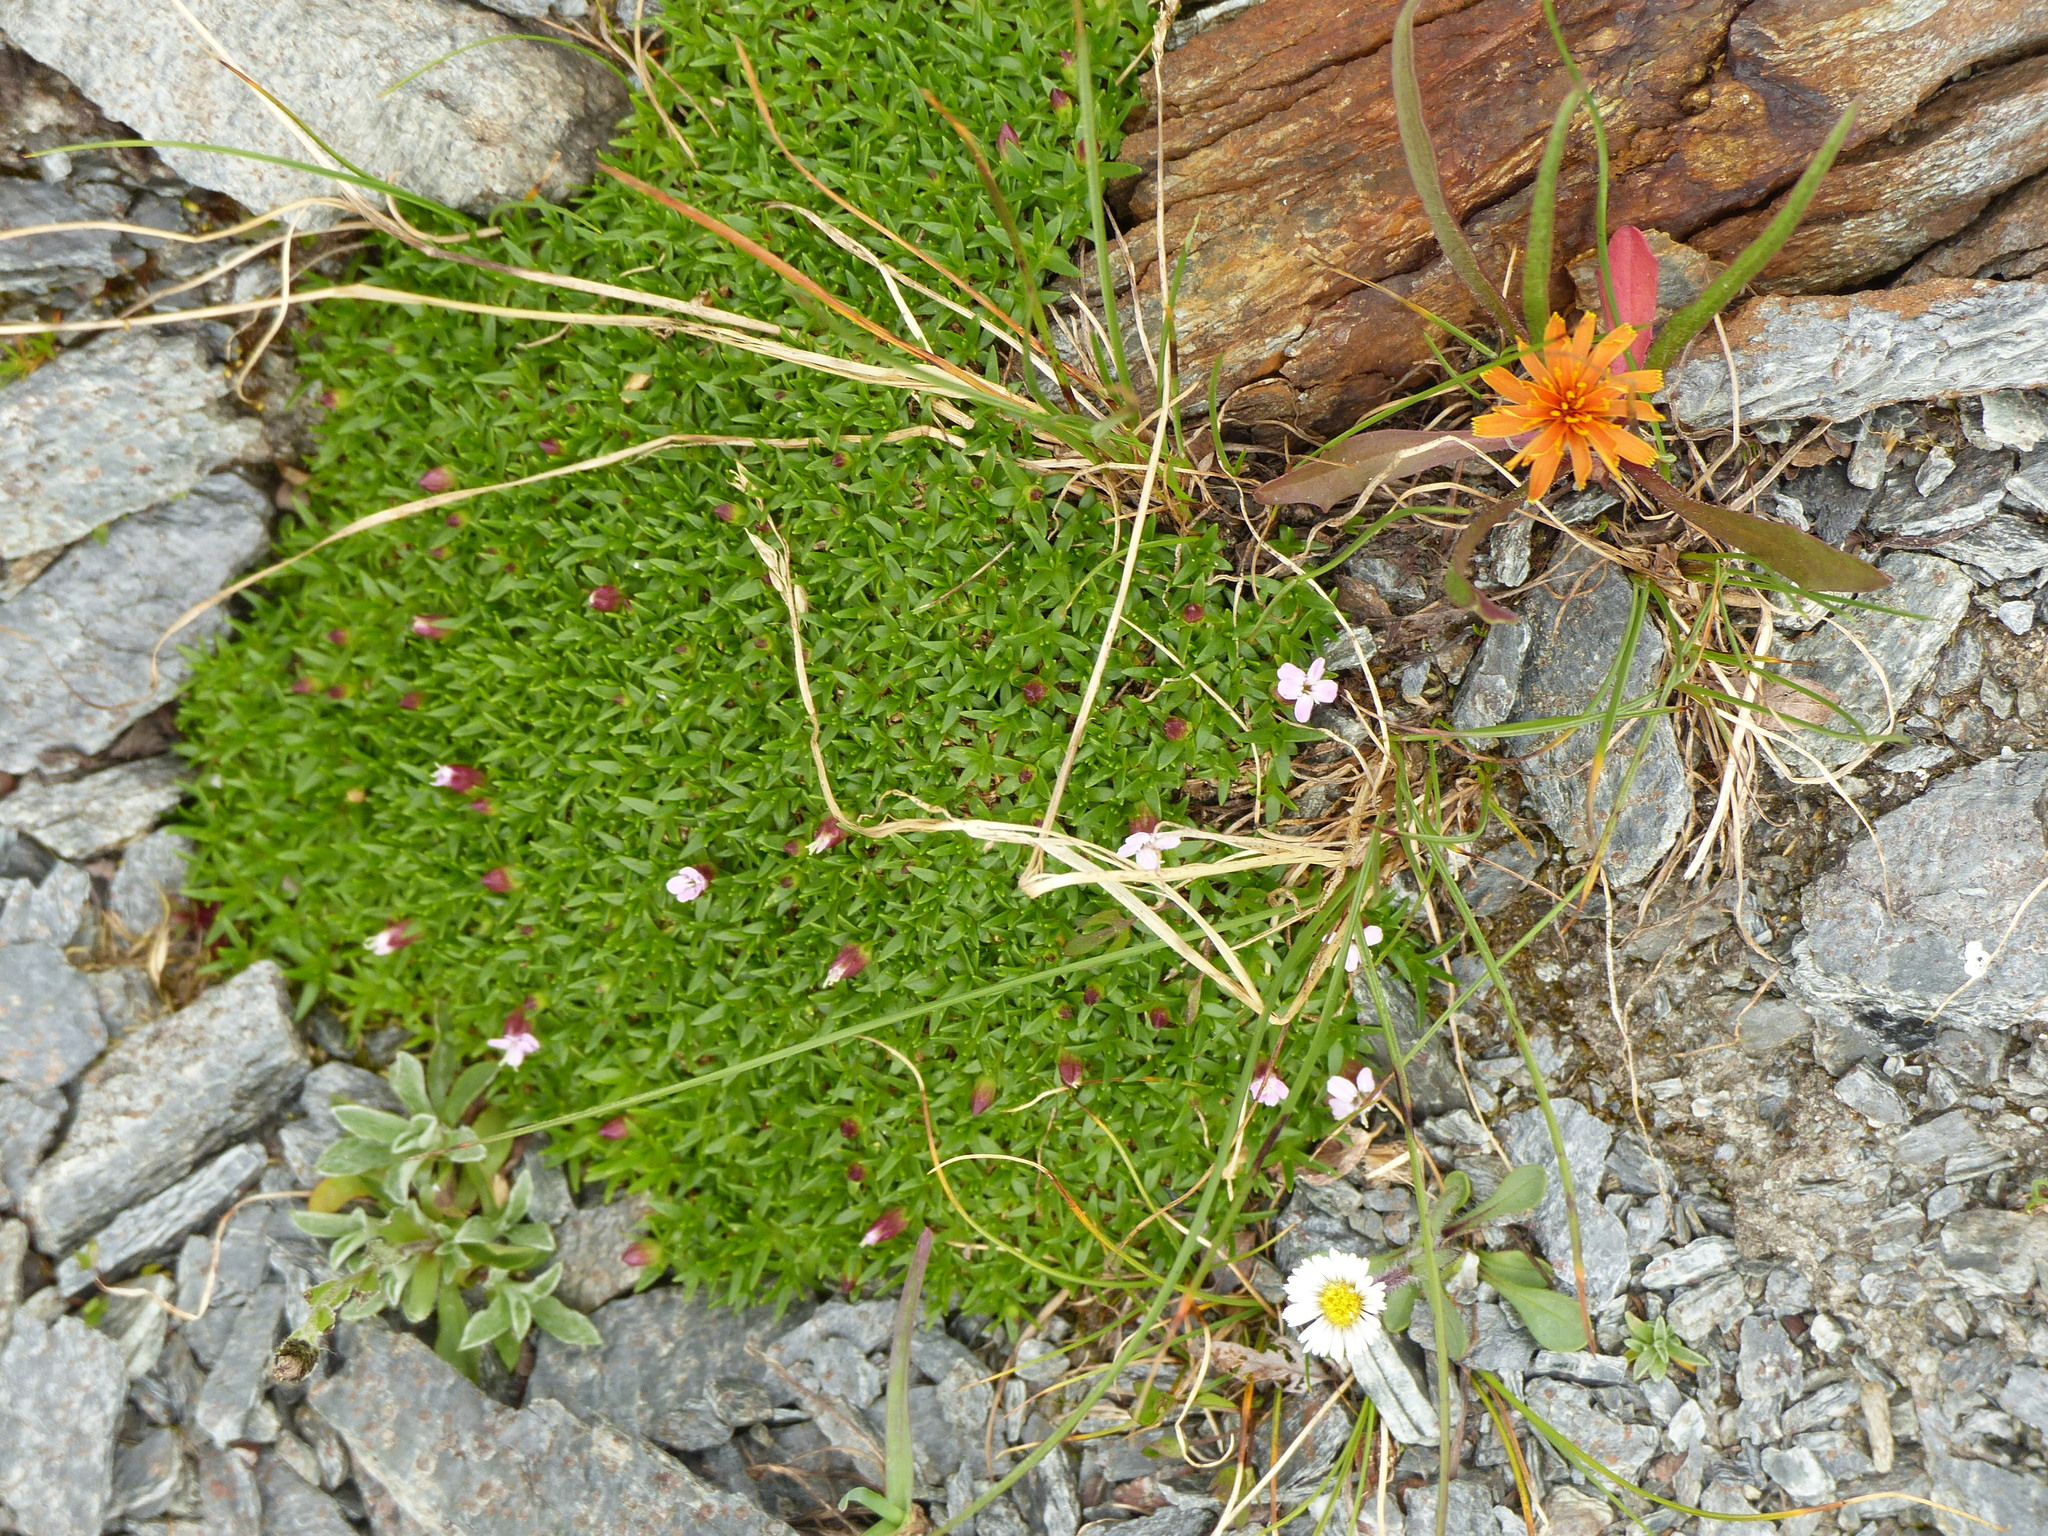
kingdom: Plantae
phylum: Tracheophyta
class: Magnoliopsida
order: Caryophyllales
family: Caryophyllaceae
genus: Silene
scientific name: Silene acaulis
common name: Moss campion
